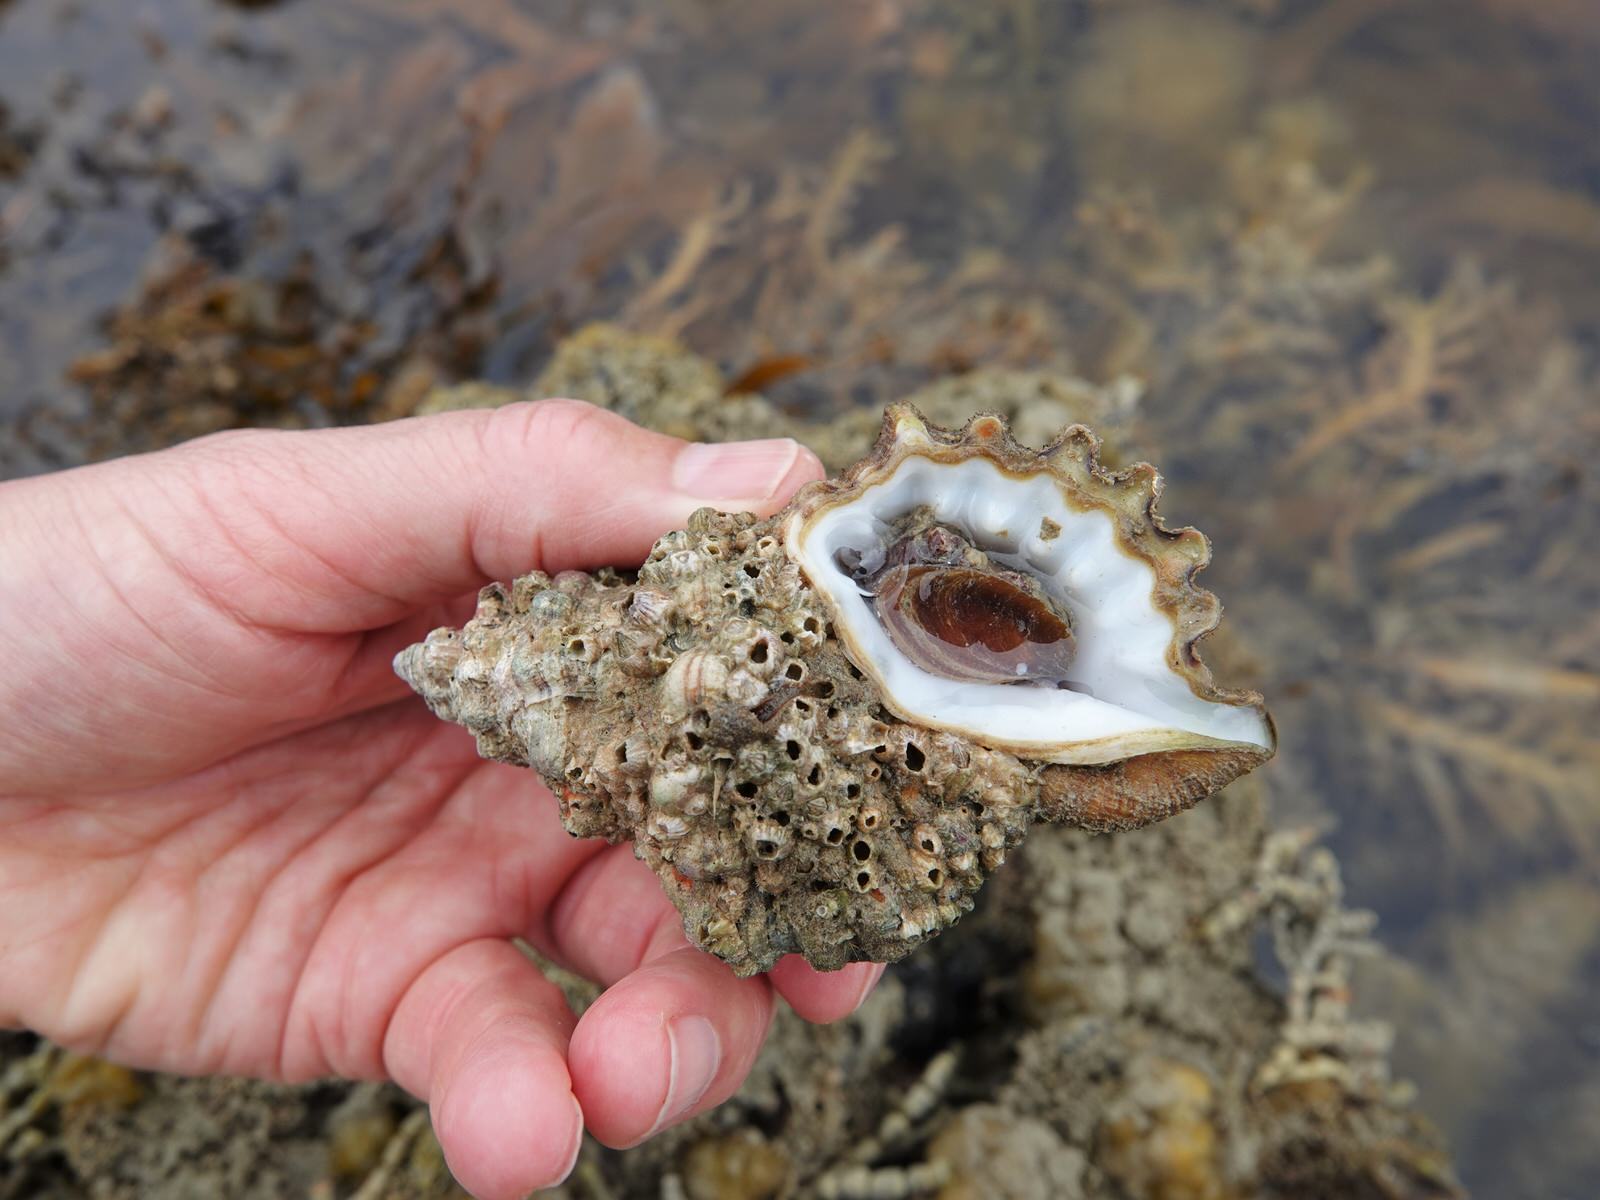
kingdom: Animalia
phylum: Mollusca
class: Gastropoda
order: Littorinimorpha
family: Cymatiidae
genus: Cabestana
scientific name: Cabestana spengleri
